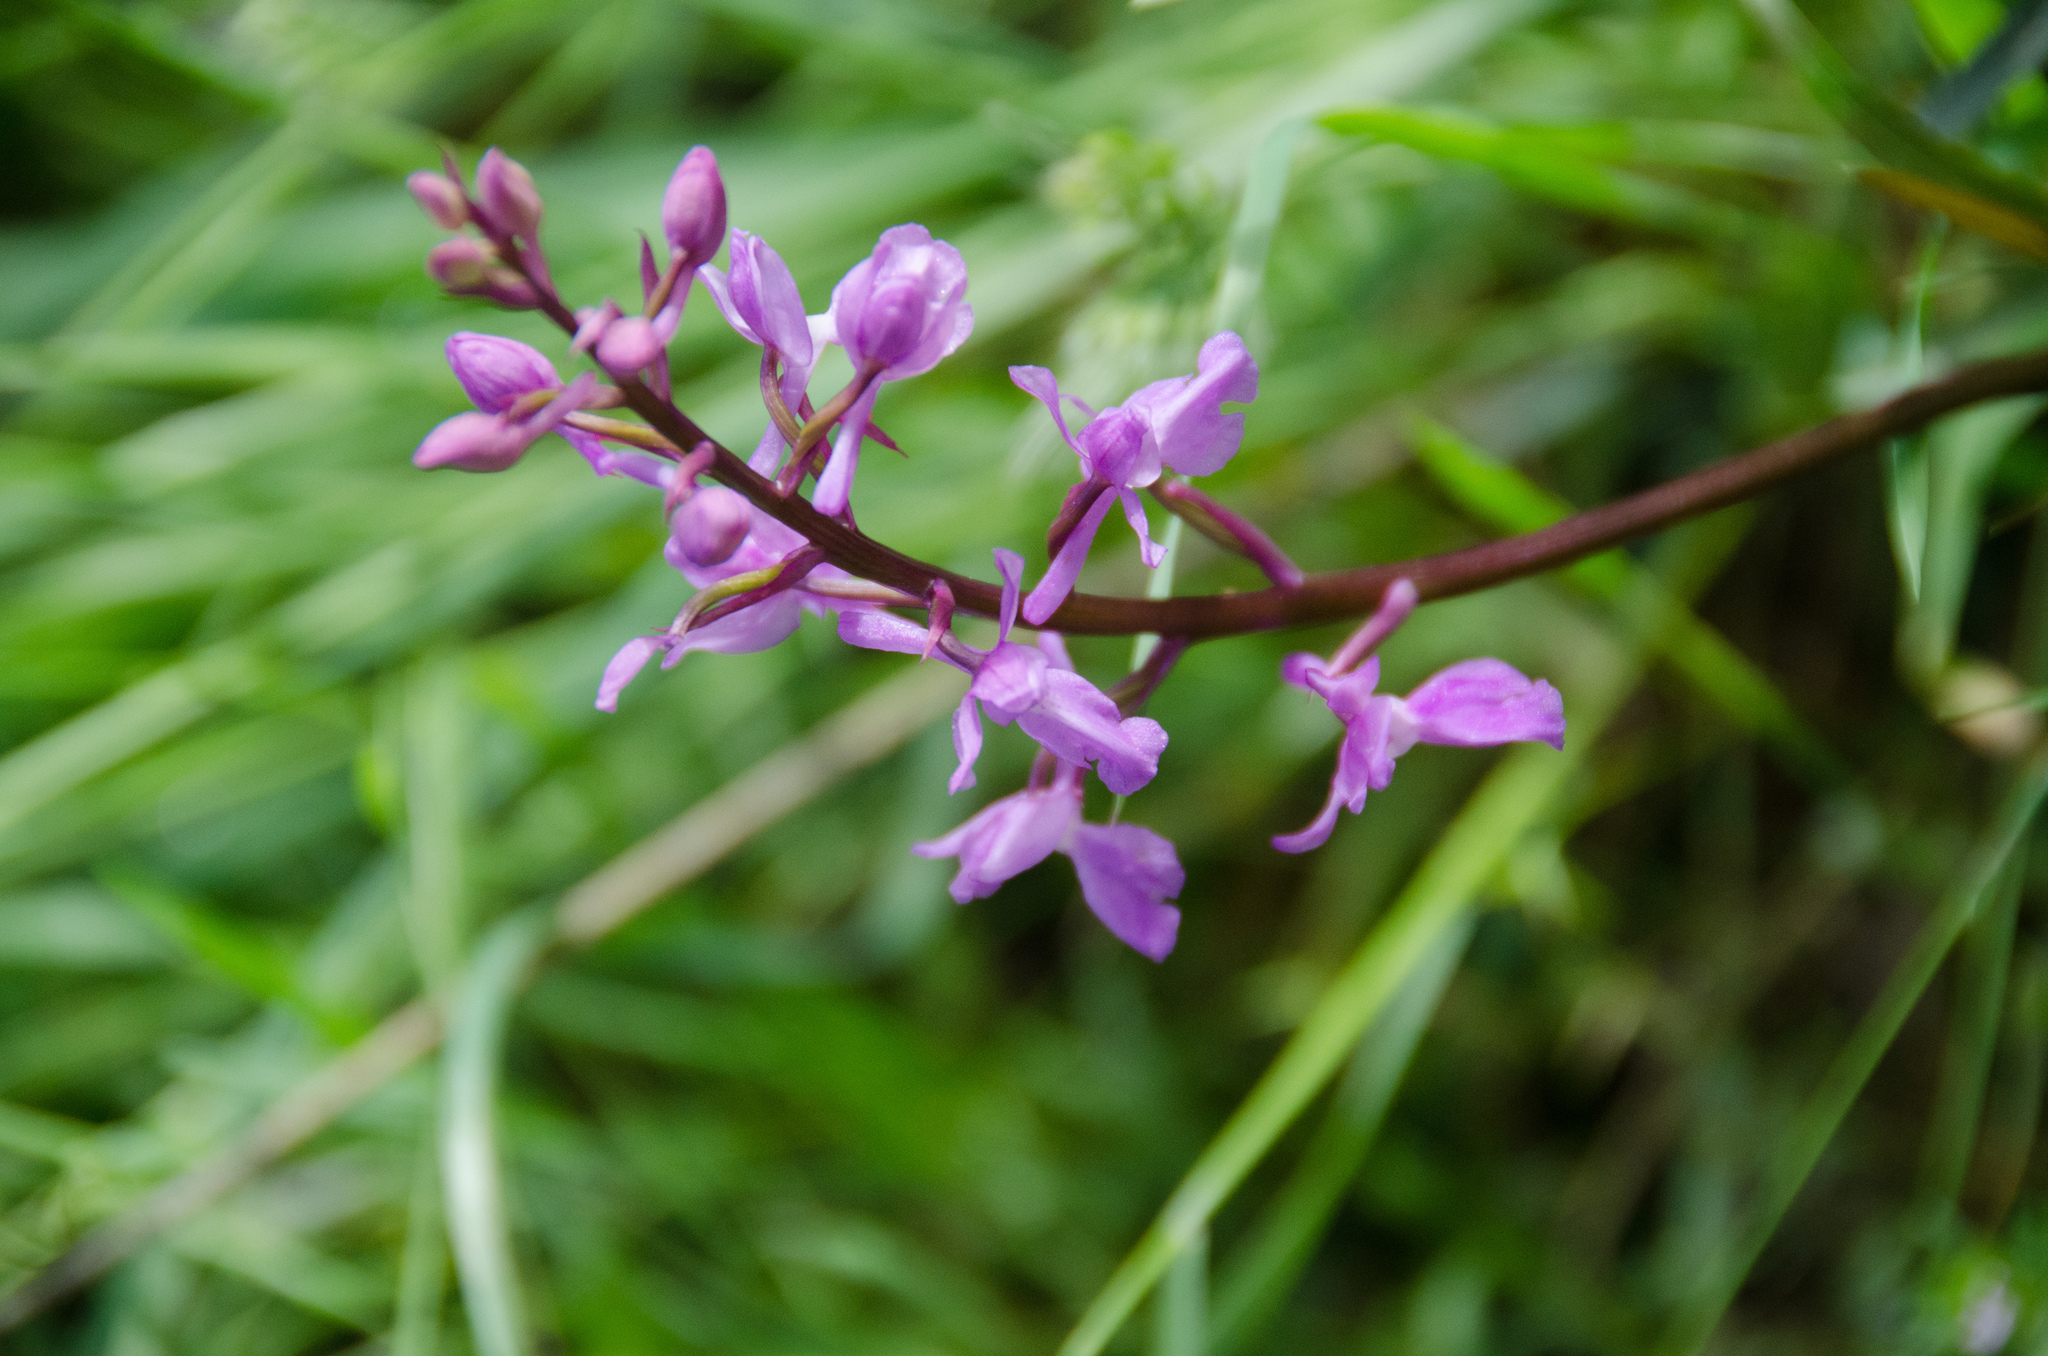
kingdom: Plantae
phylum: Tracheophyta
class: Liliopsida
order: Asparagales
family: Orchidaceae
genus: Orchis
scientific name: Orchis mascula
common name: Early-purple orchid
